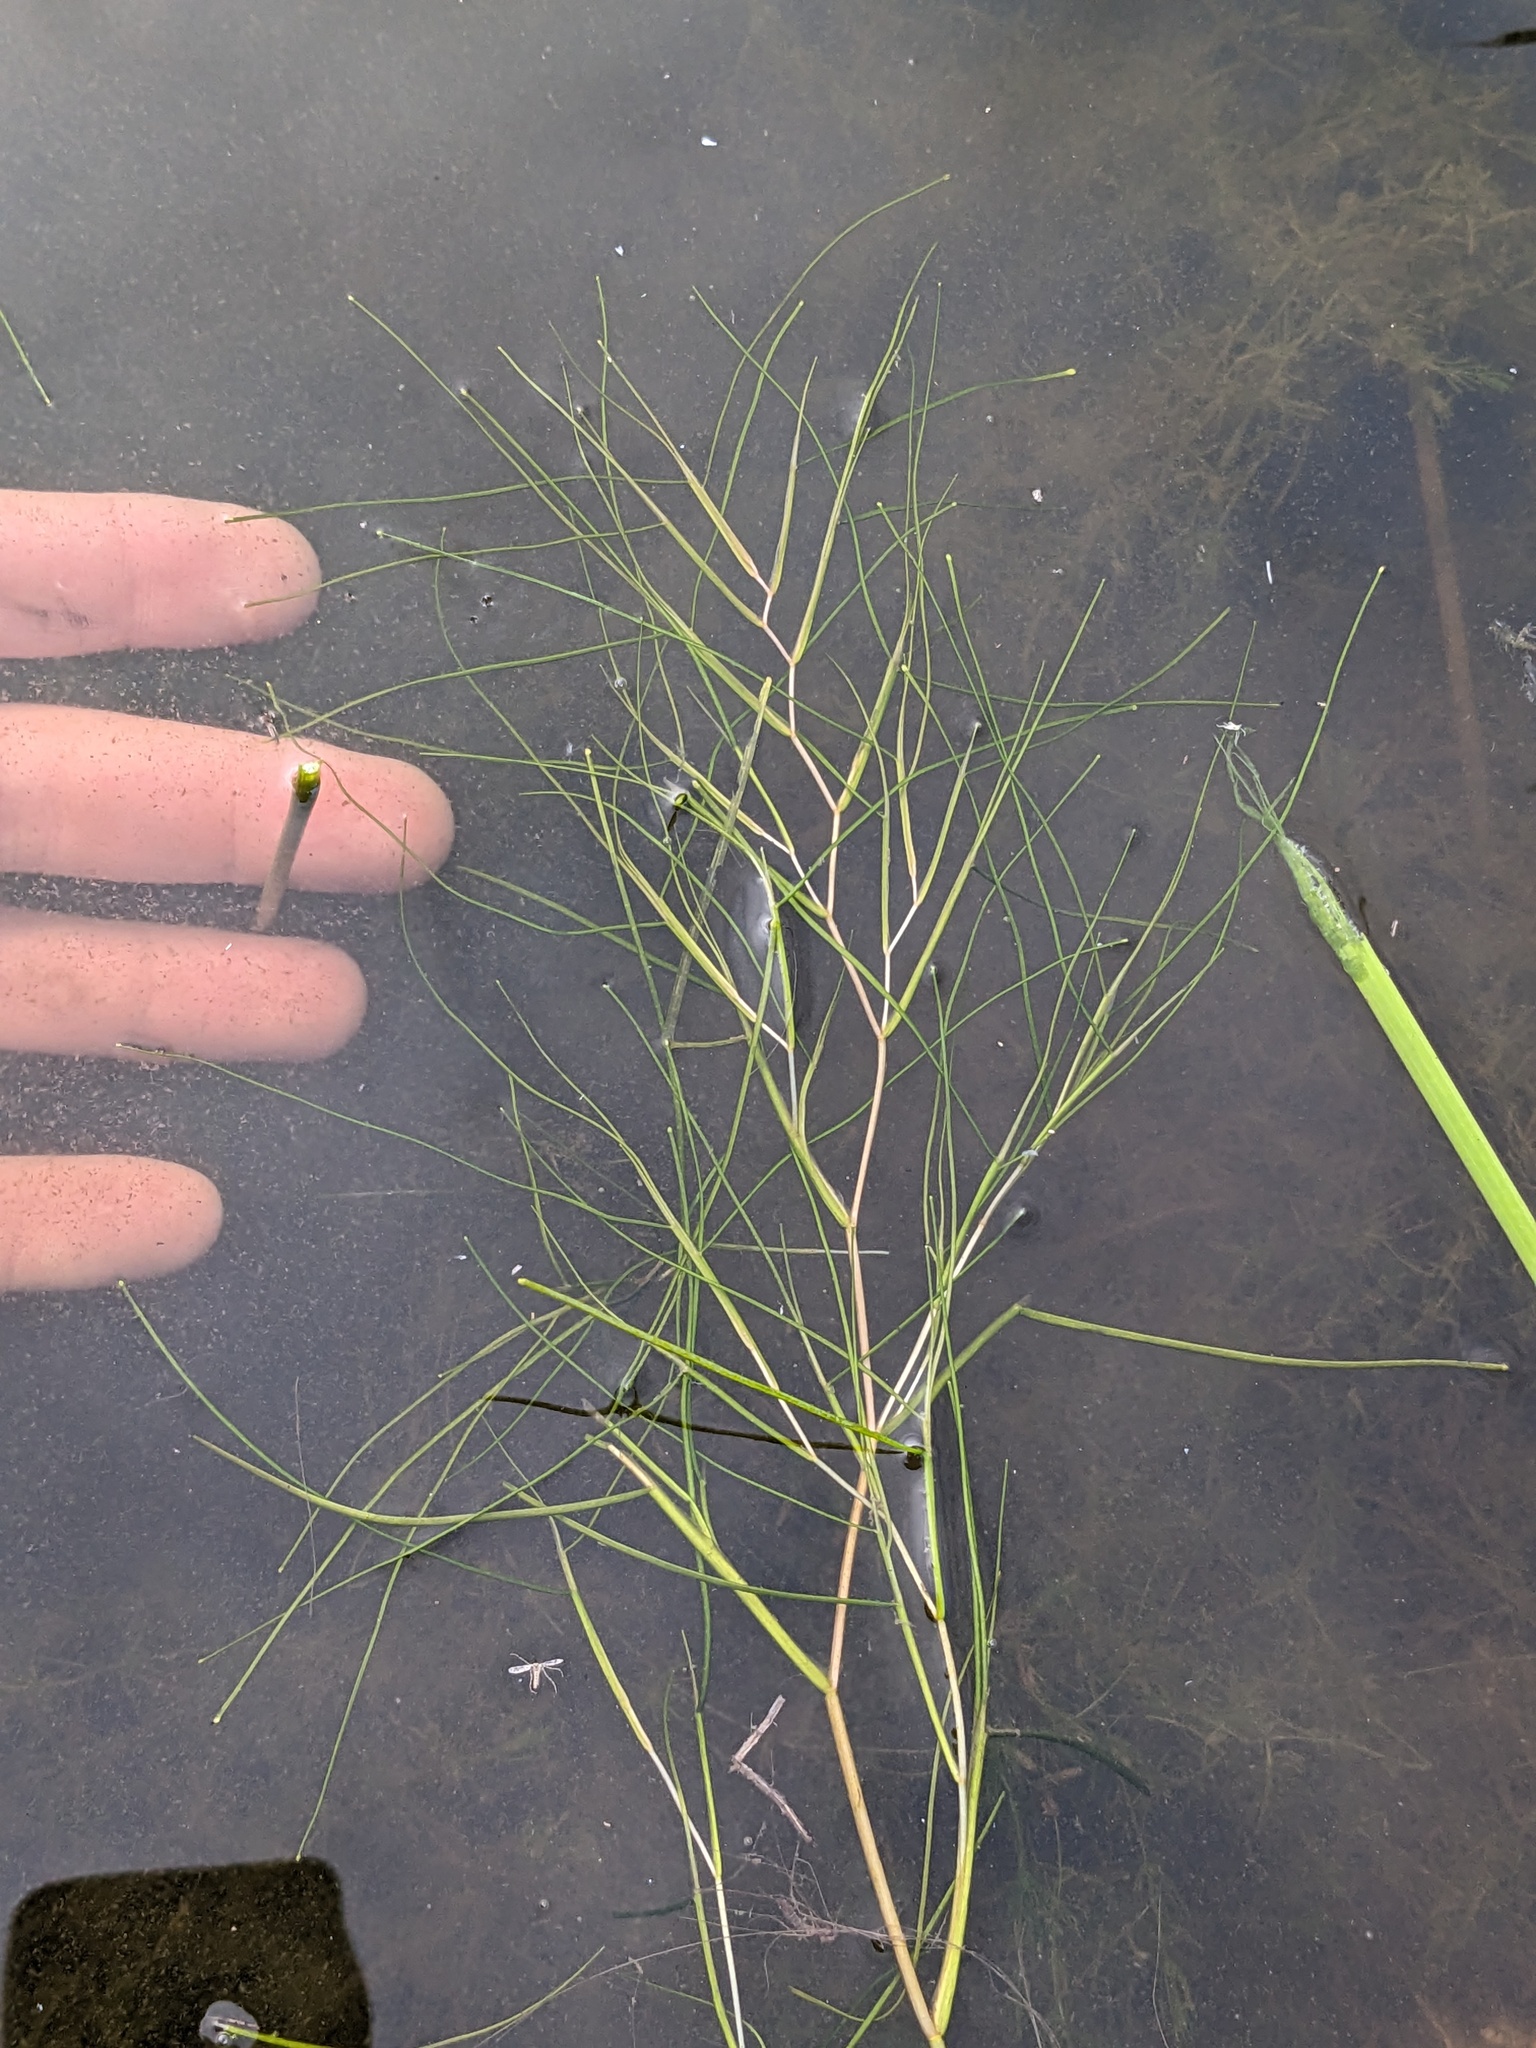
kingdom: Plantae
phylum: Tracheophyta
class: Liliopsida
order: Alismatales
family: Potamogetonaceae
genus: Stuckenia
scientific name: Stuckenia pectinata
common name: Sago pondweed
